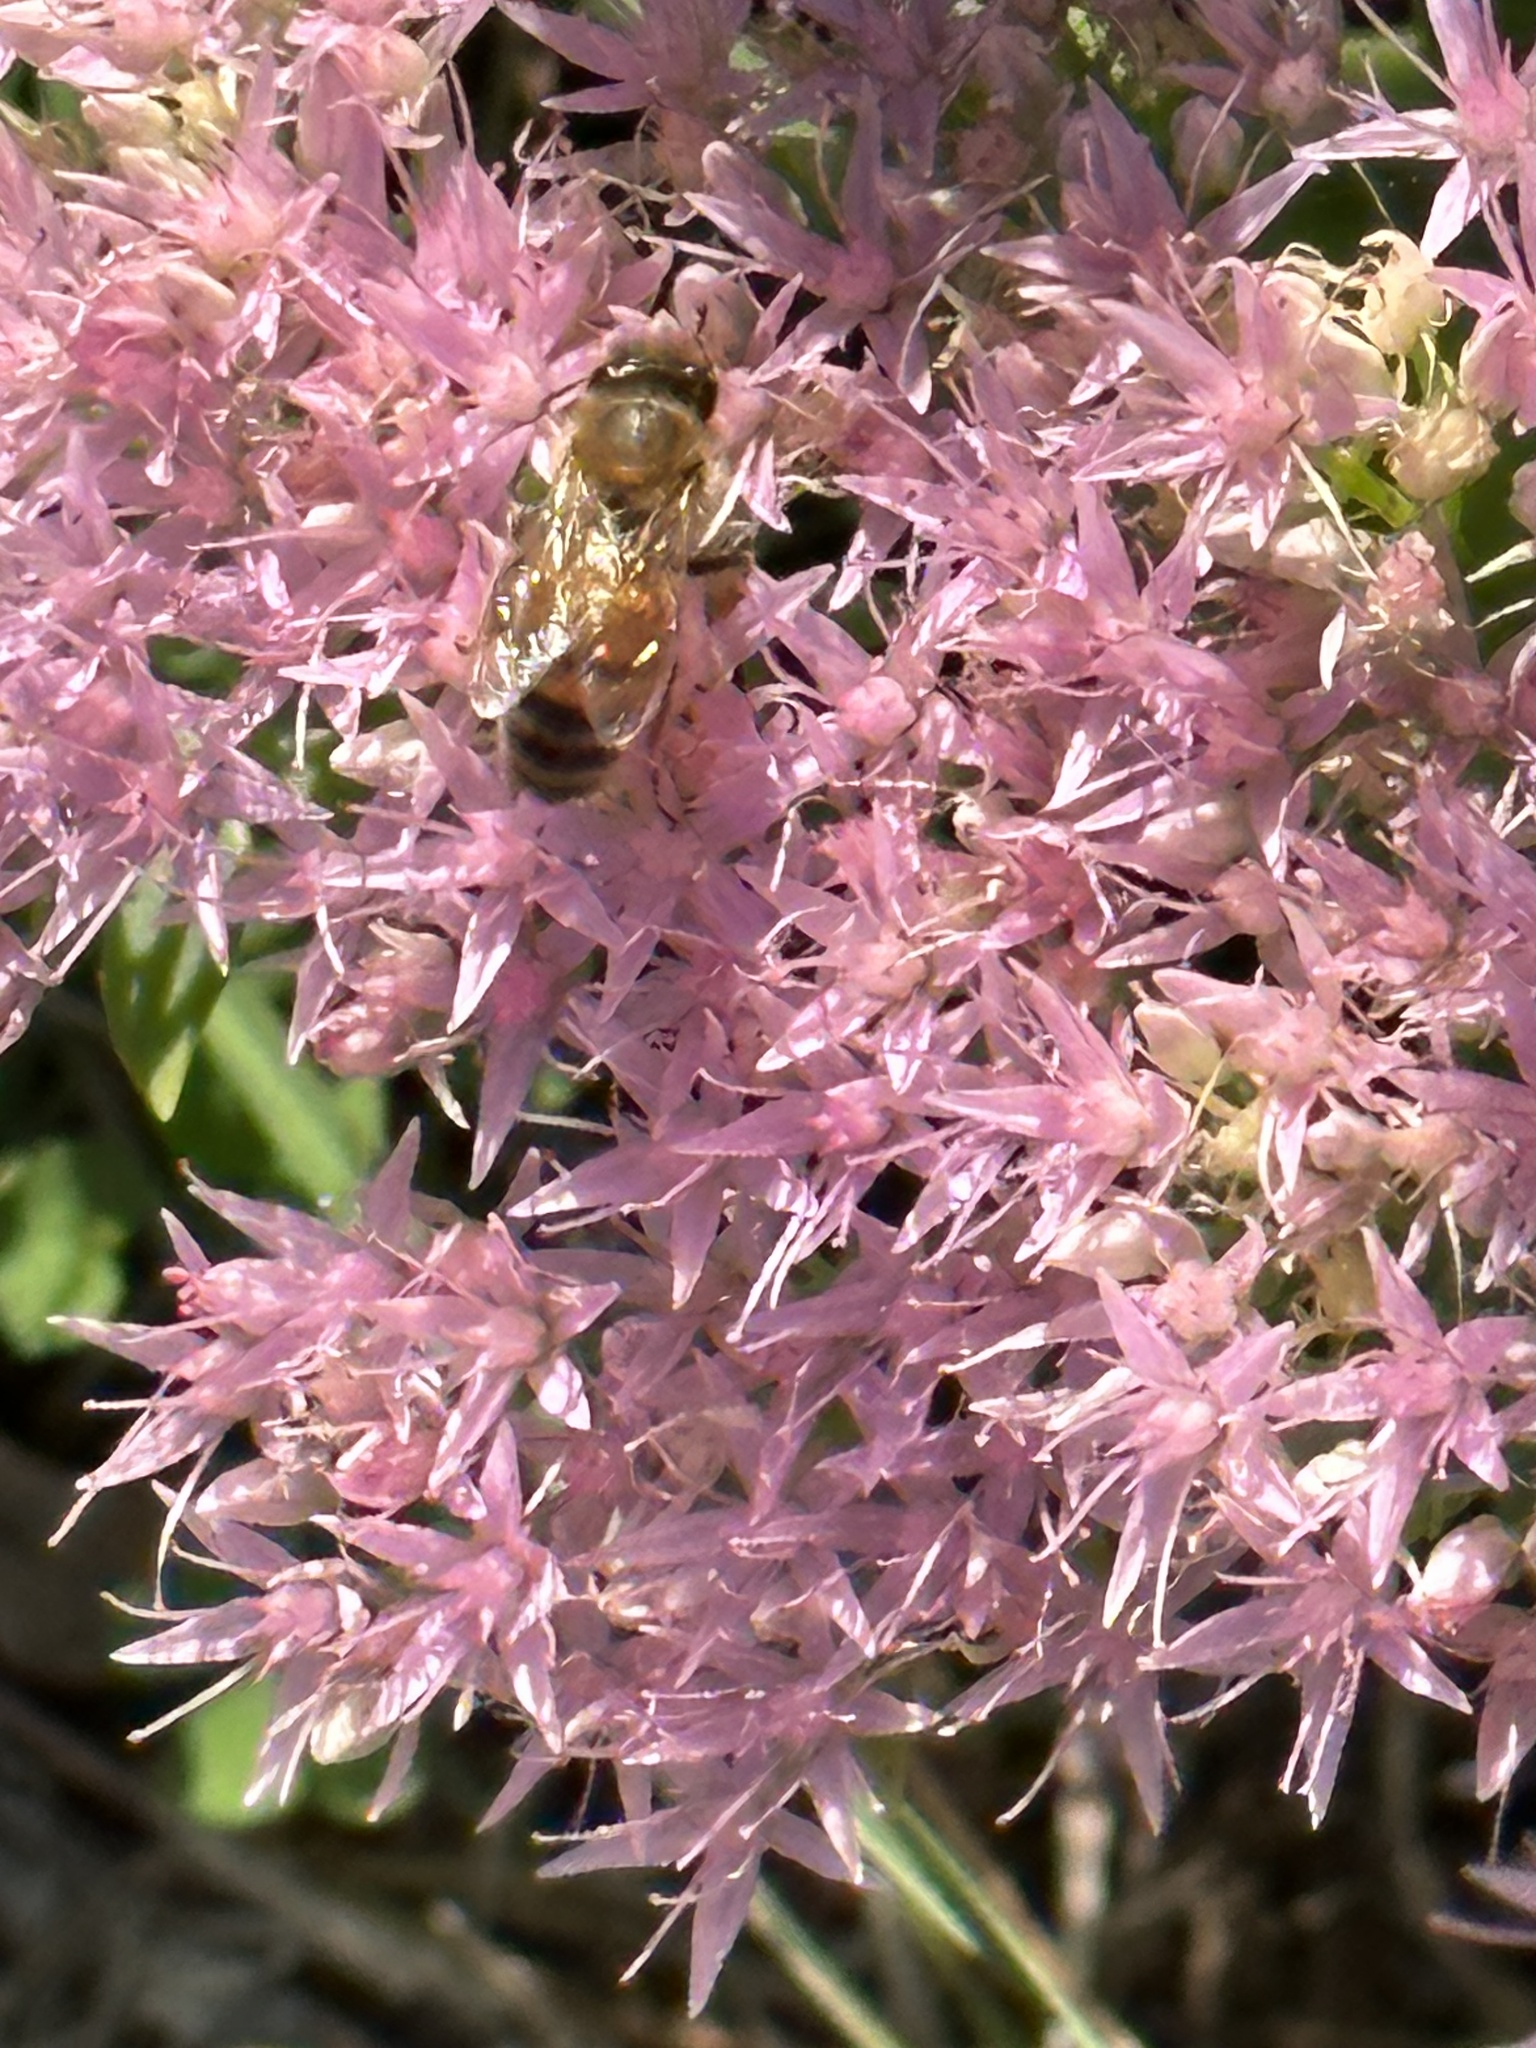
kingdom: Animalia
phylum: Arthropoda
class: Insecta
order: Hymenoptera
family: Apidae
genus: Apis
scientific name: Apis mellifera
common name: Honey bee
